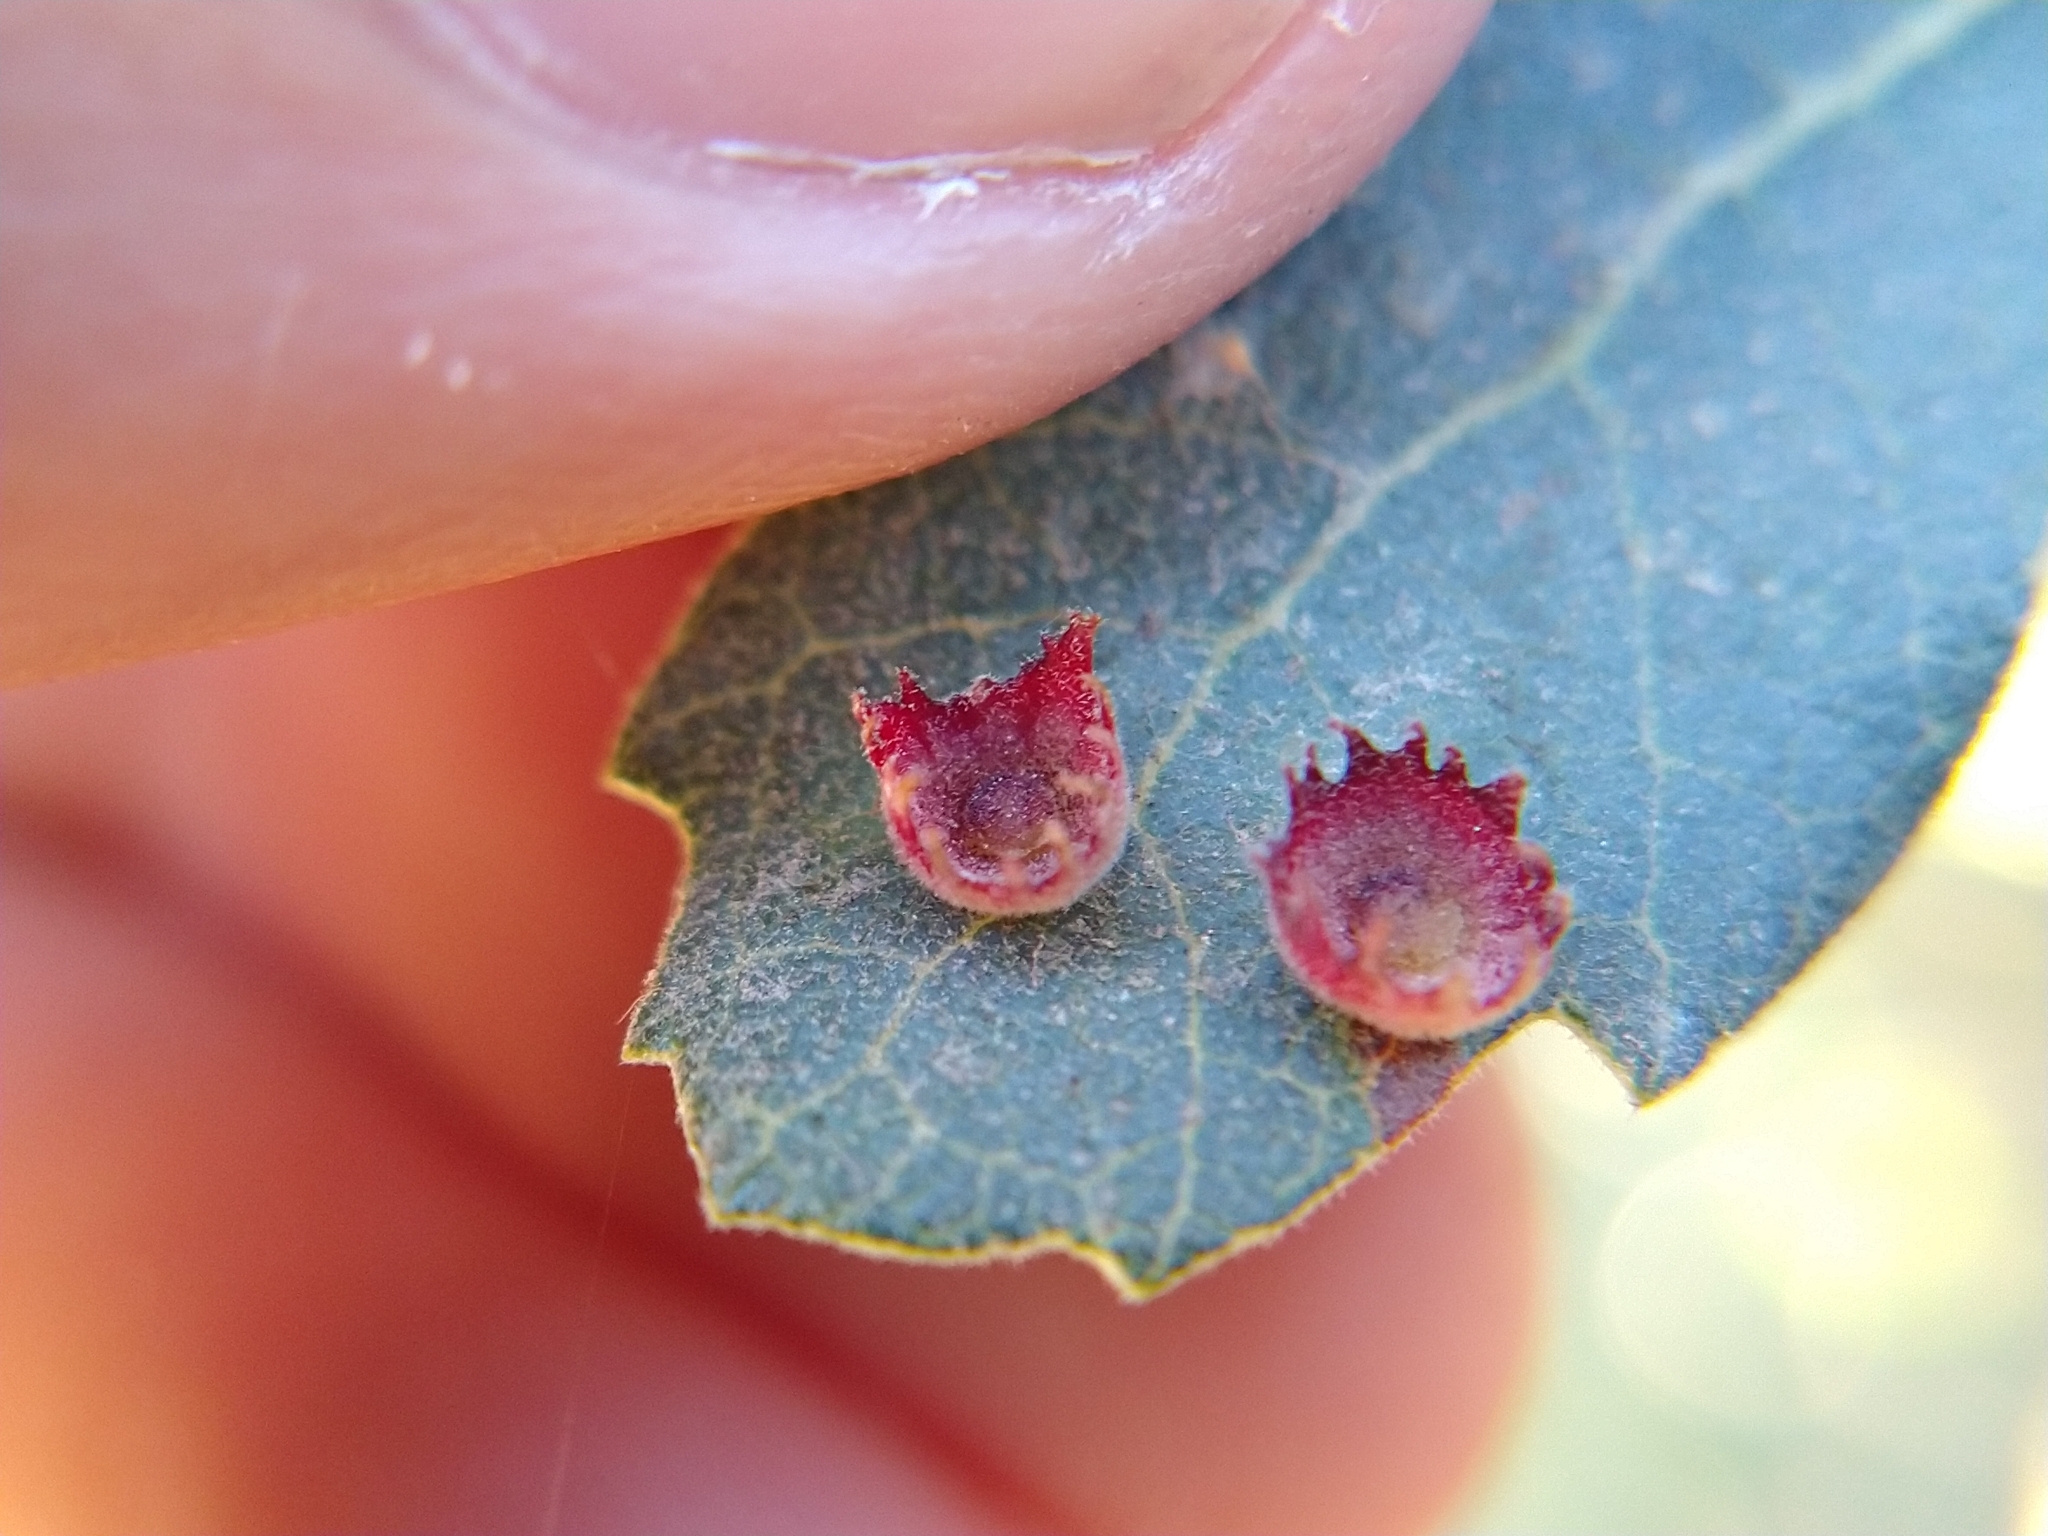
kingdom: Animalia
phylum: Arthropoda
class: Insecta
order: Hymenoptera
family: Cynipidae
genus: Andricus
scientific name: Andricus
